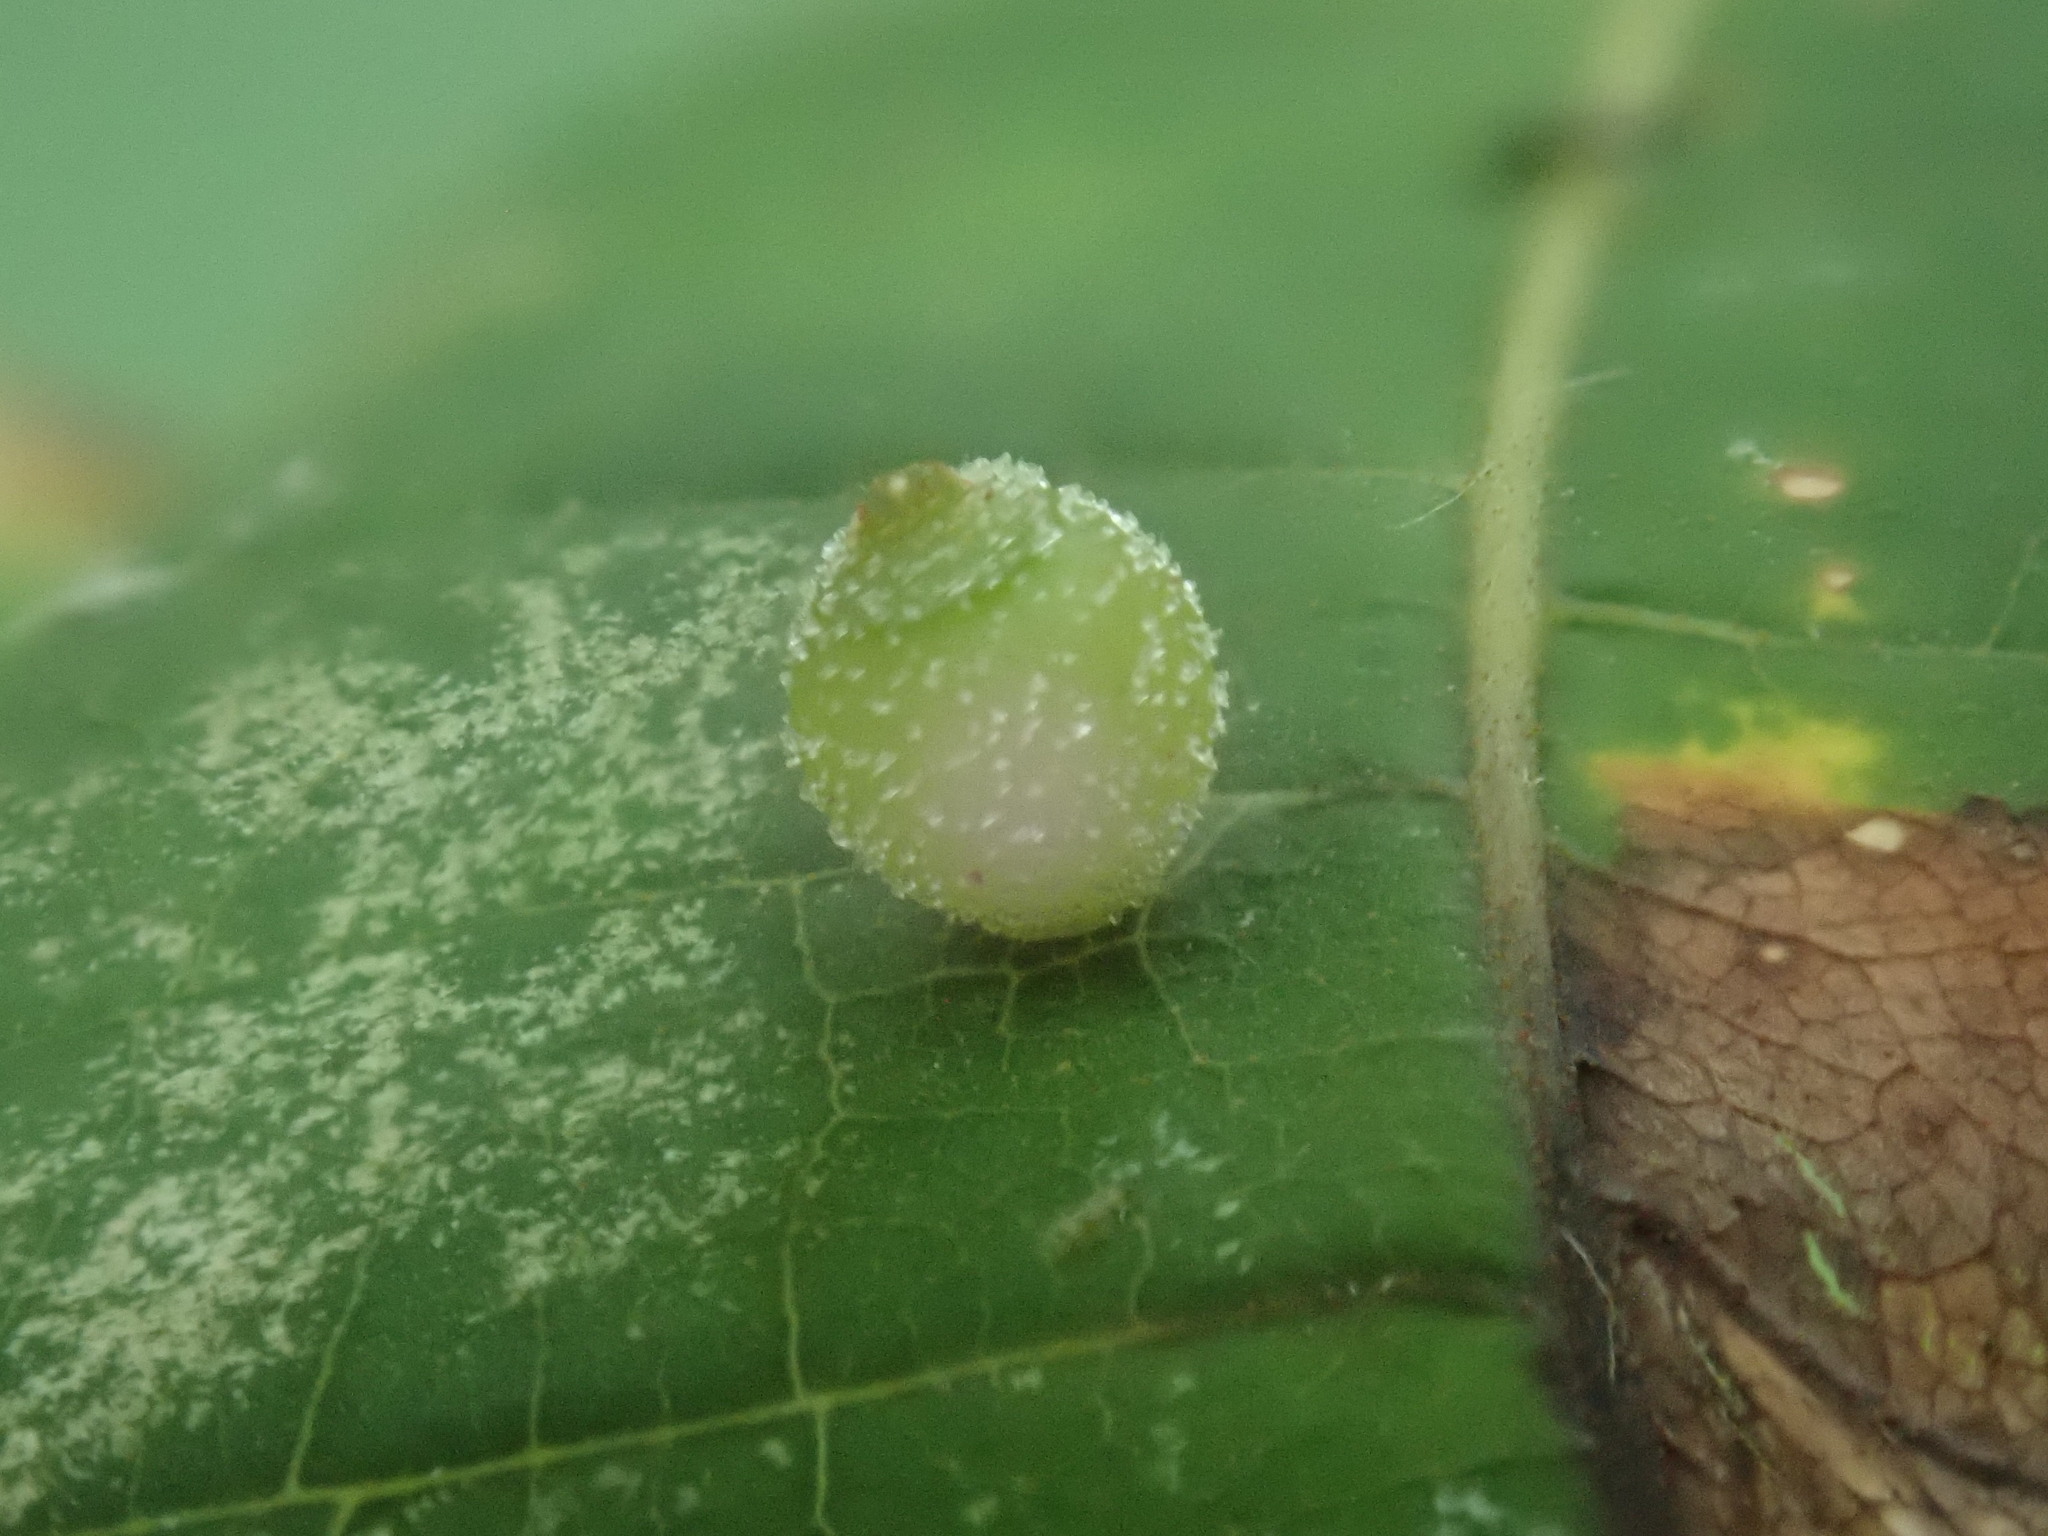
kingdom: Animalia
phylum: Arthropoda
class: Insecta
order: Diptera
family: Cecidomyiidae
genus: Caryomyia
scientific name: Caryomyia viscidolium
